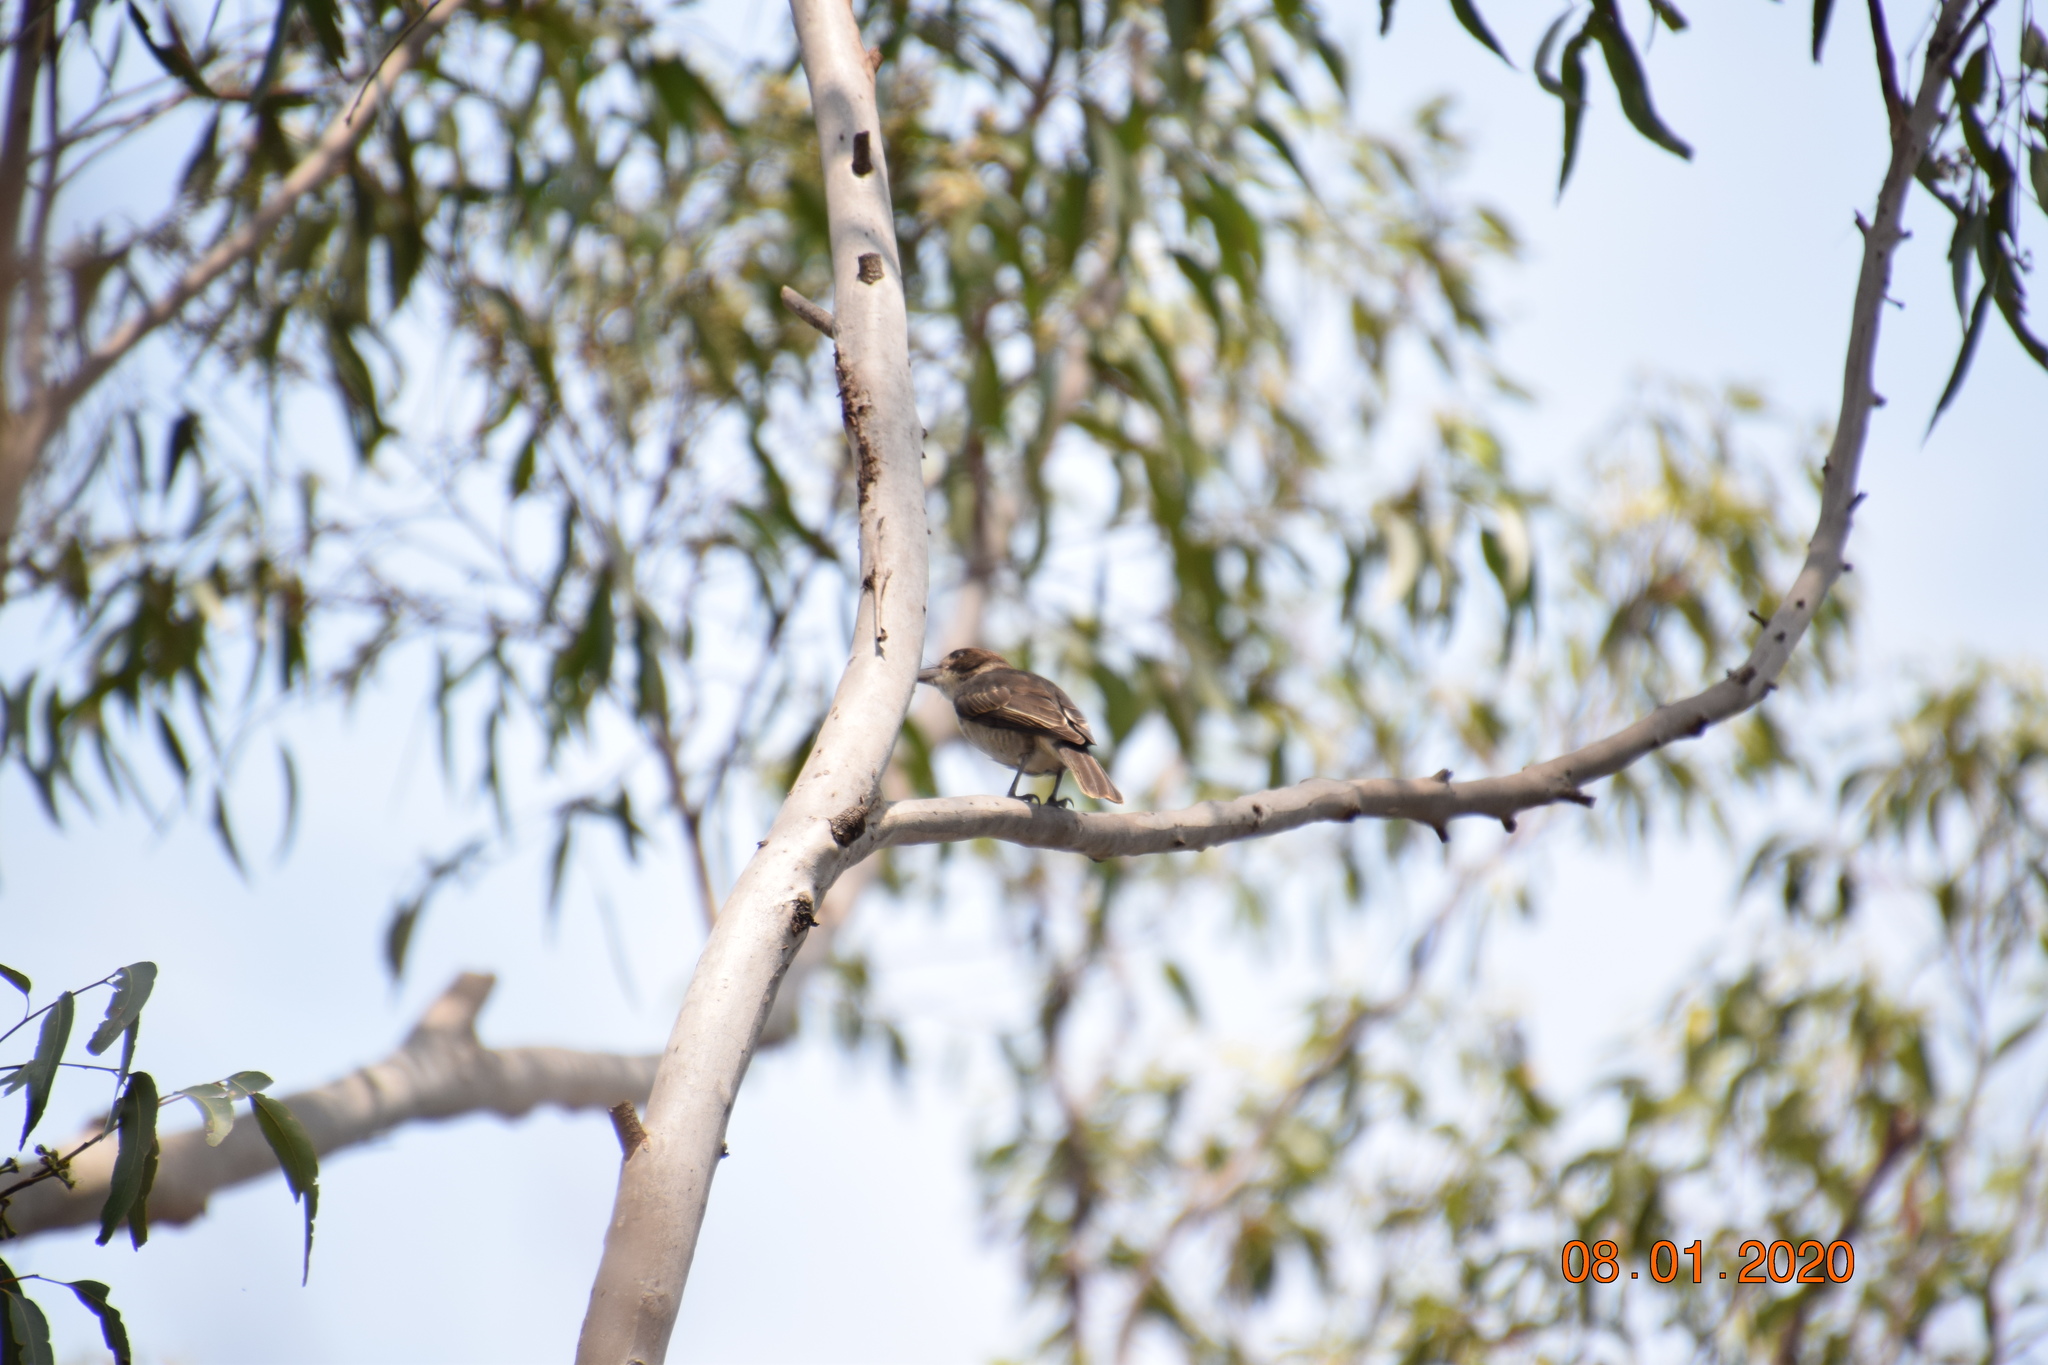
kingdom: Animalia
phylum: Chordata
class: Aves
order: Passeriformes
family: Cracticidae
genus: Cracticus
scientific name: Cracticus torquatus
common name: Grey butcherbird
